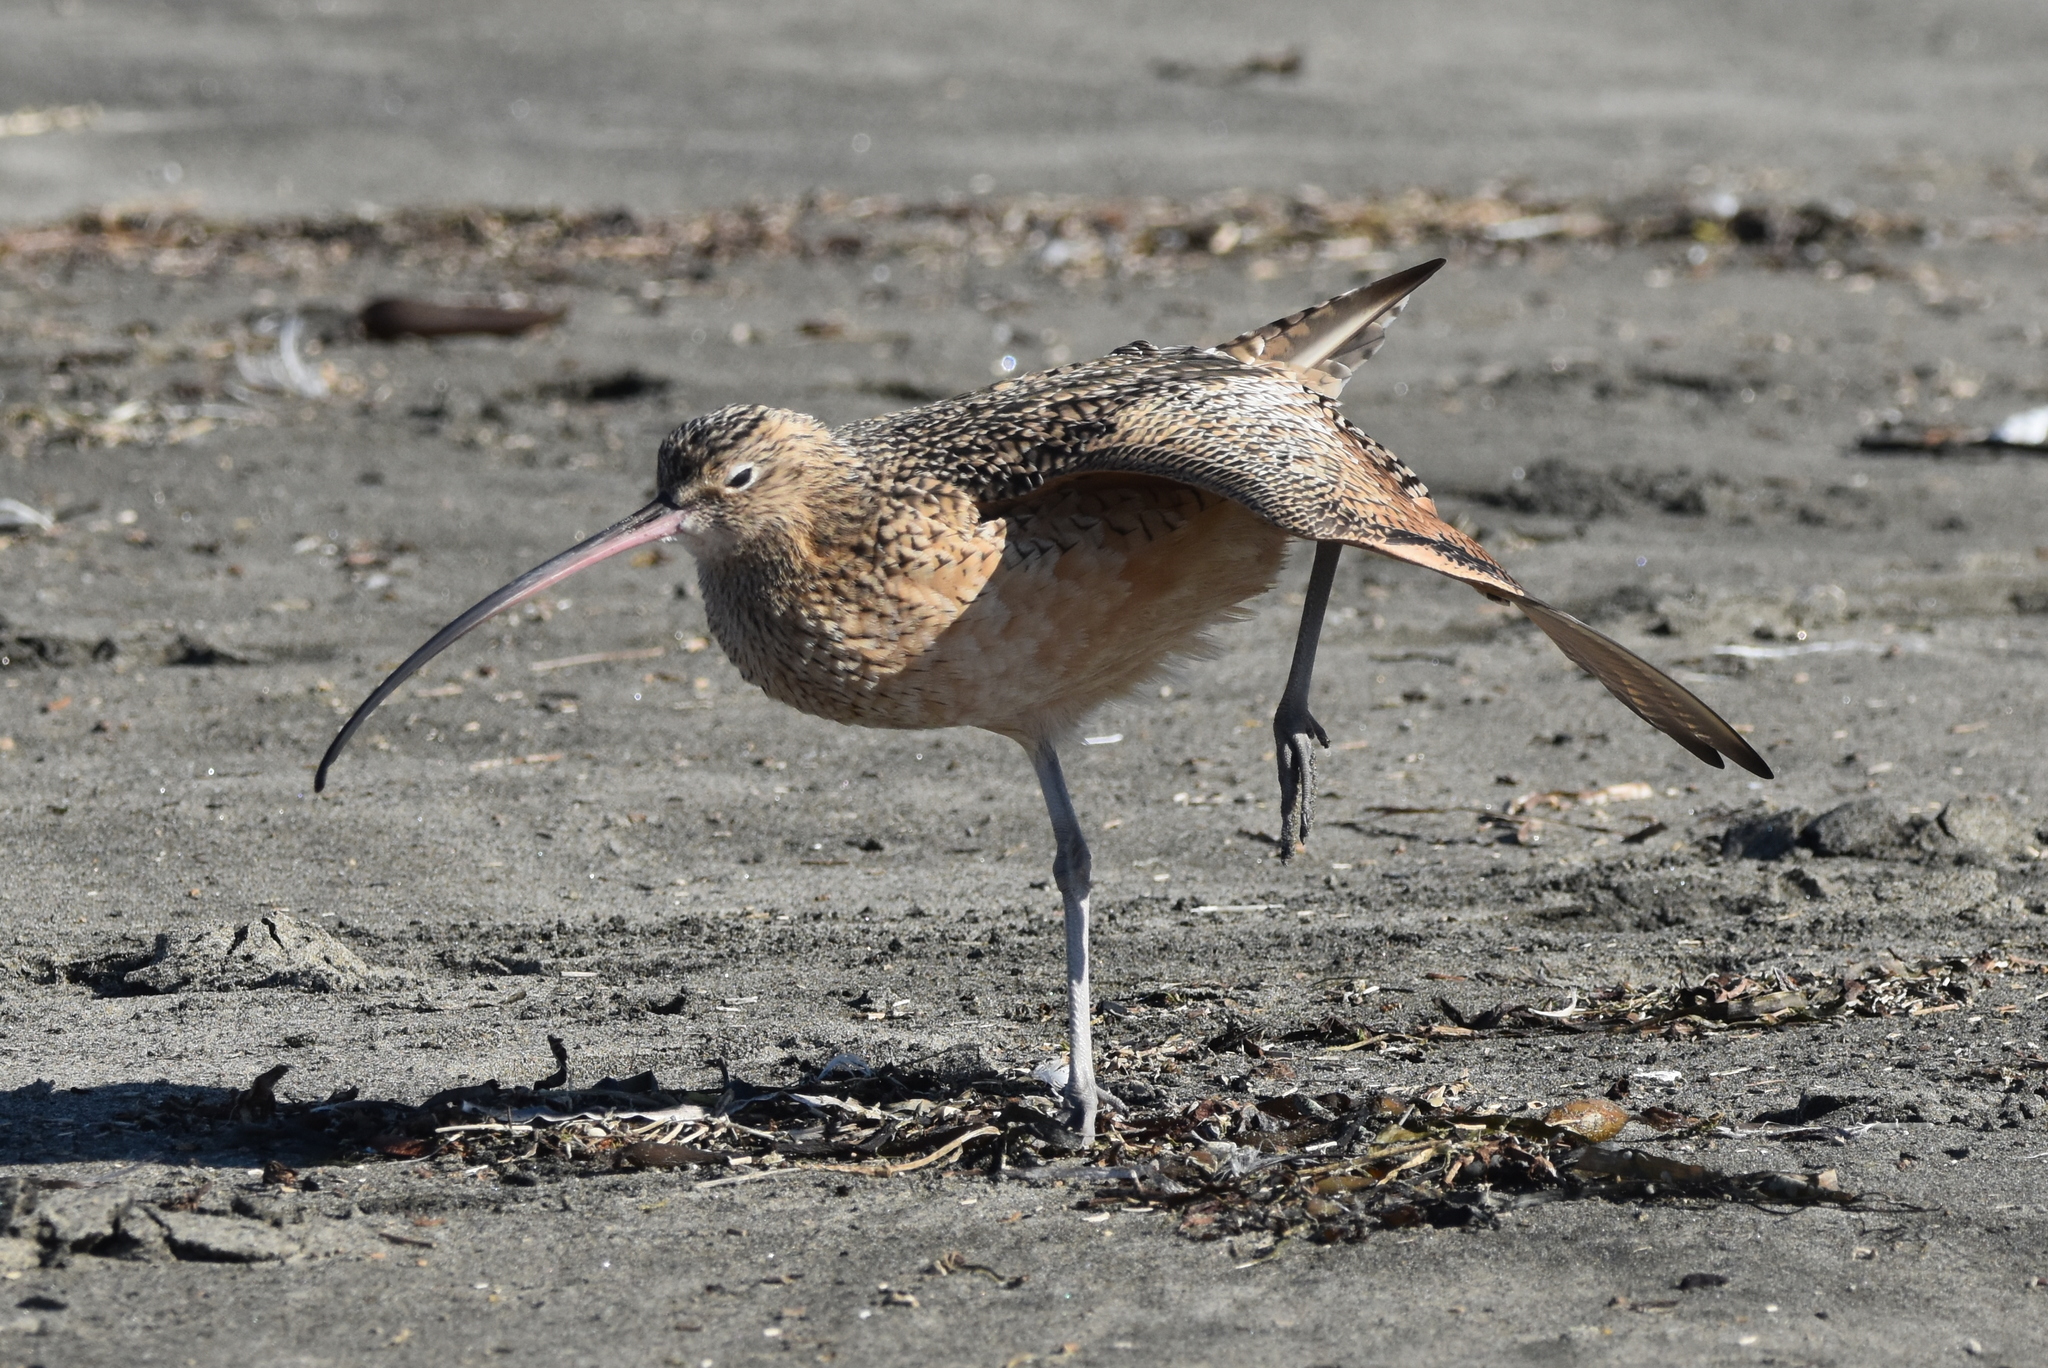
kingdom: Animalia
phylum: Chordata
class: Aves
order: Charadriiformes
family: Scolopacidae
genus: Numenius
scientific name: Numenius americanus
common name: Long-billed curlew
